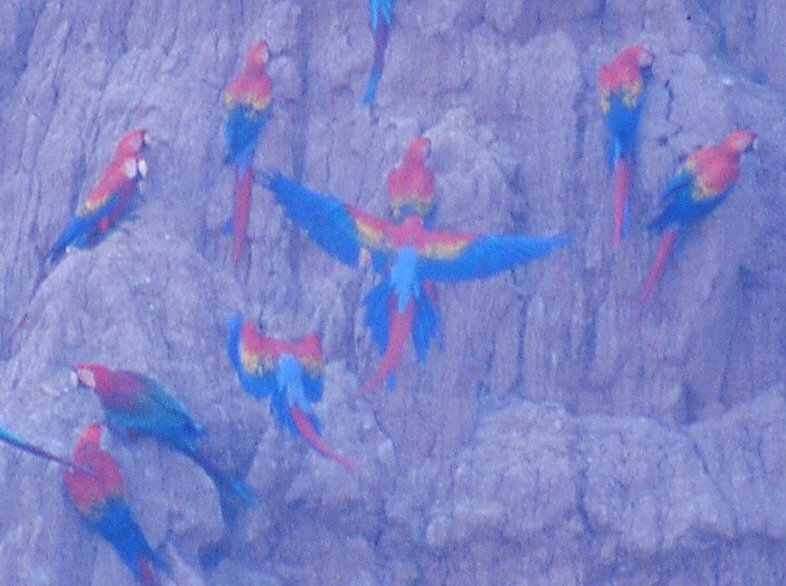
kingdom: Animalia
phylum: Chordata
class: Aves
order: Psittaciformes
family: Psittacidae
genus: Ara
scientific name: Ara macao
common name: Scarlet macaw
